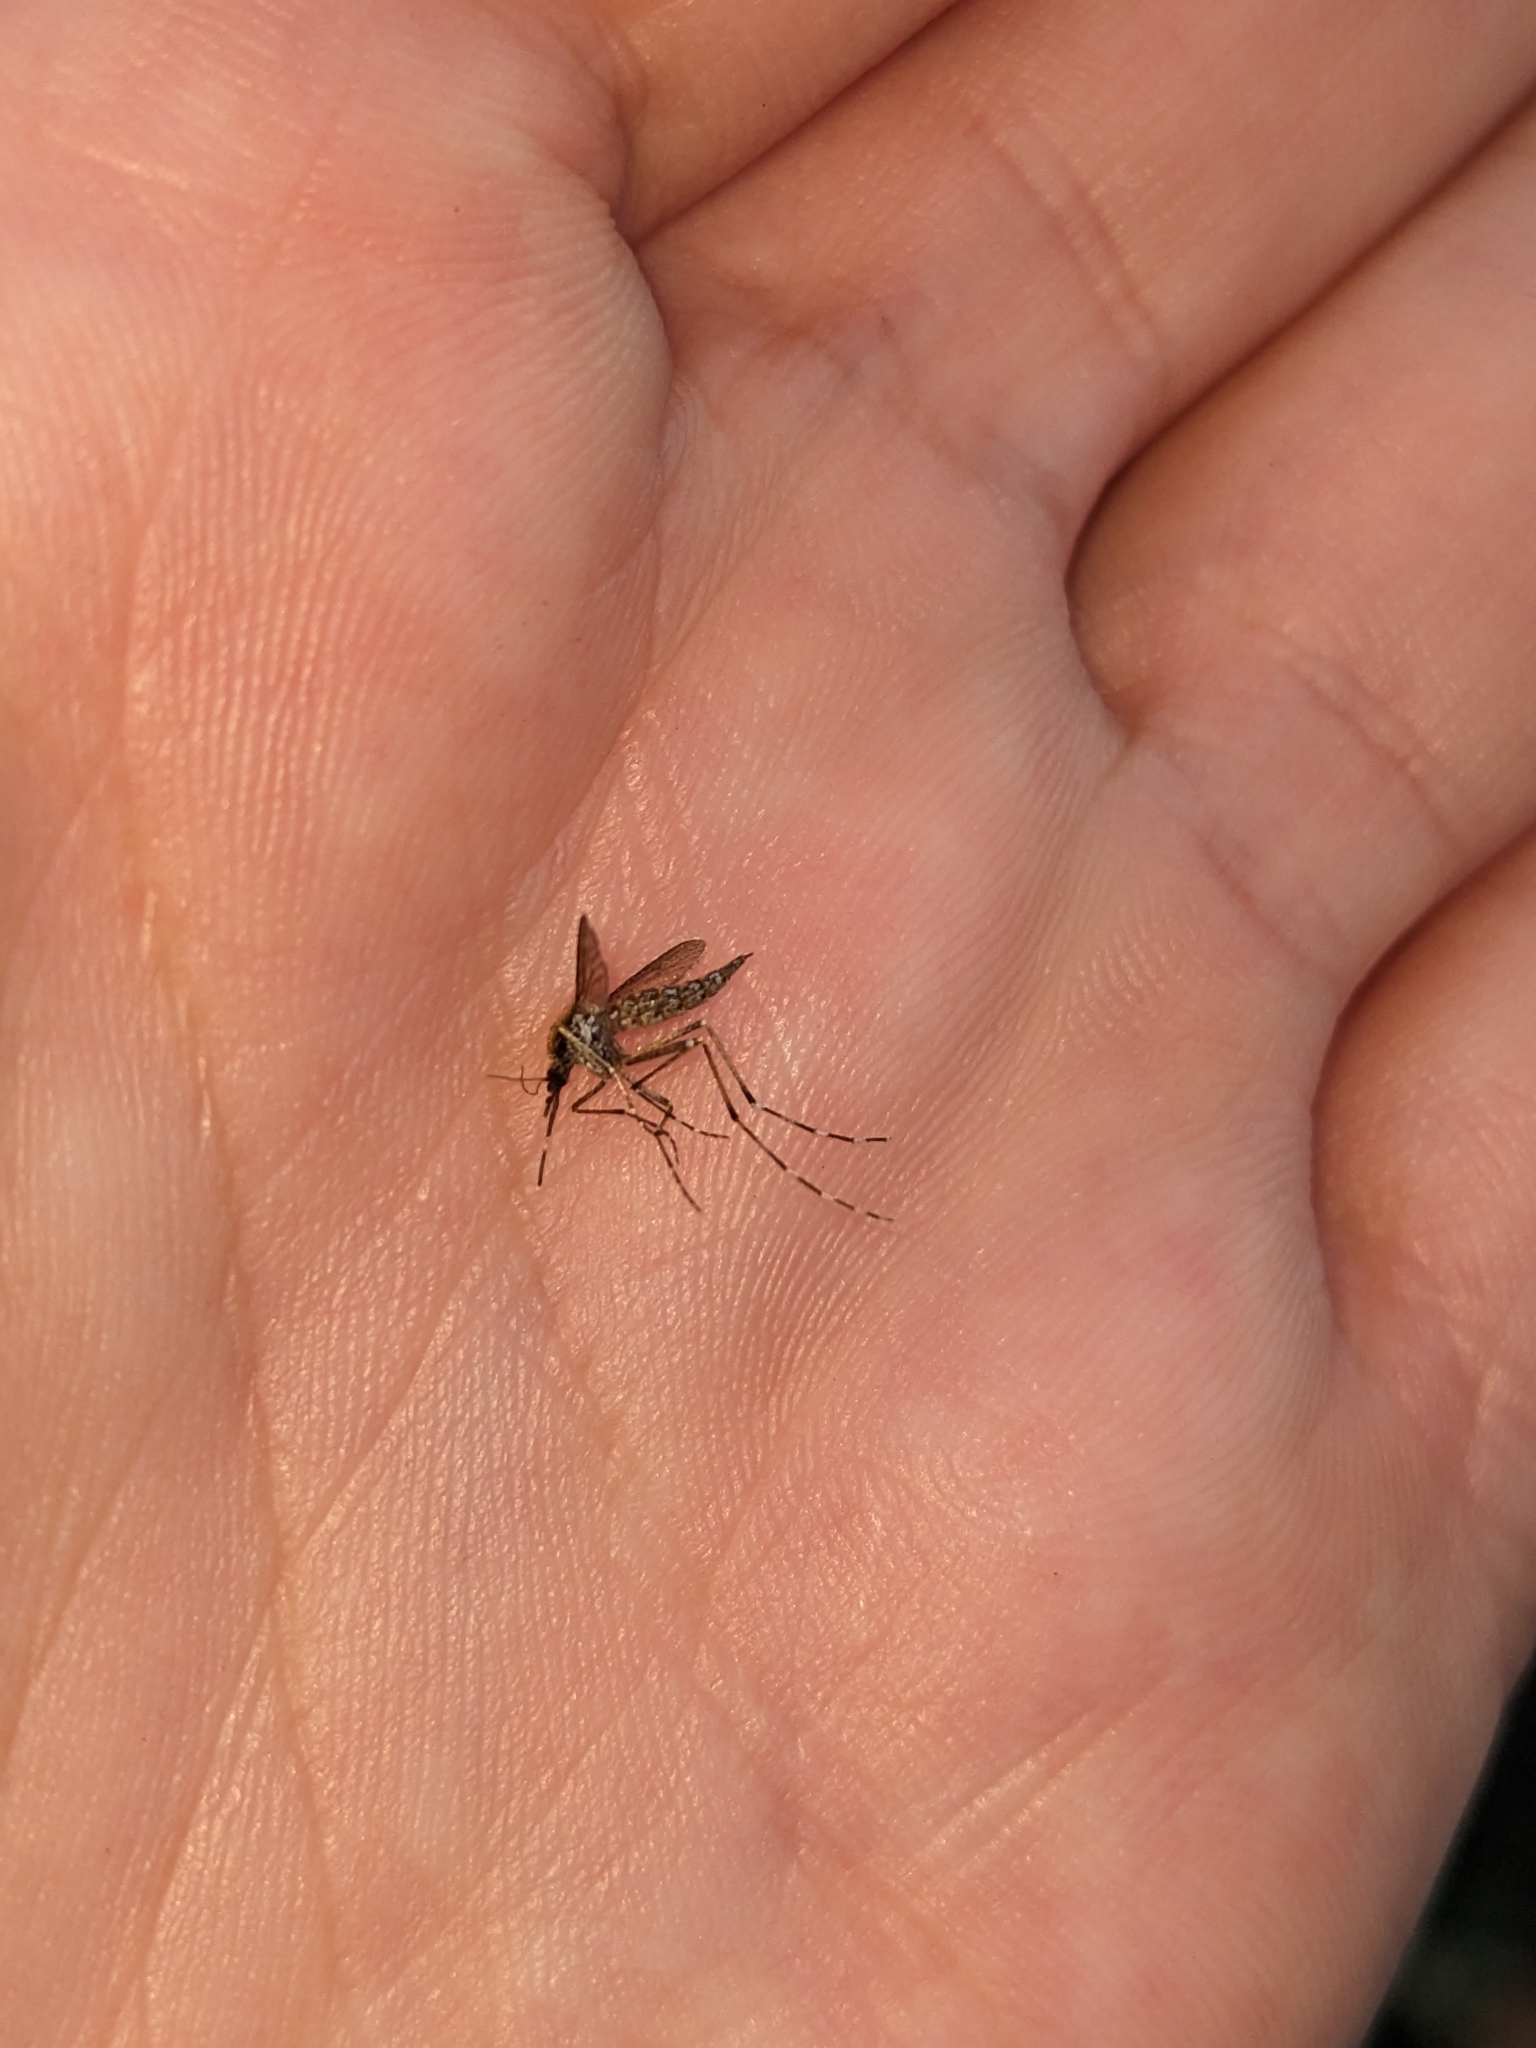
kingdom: Animalia
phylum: Arthropoda
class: Insecta
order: Diptera
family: Culicidae
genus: Aedes
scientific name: Aedes sollicitans
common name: Saltmarsh mosquito
